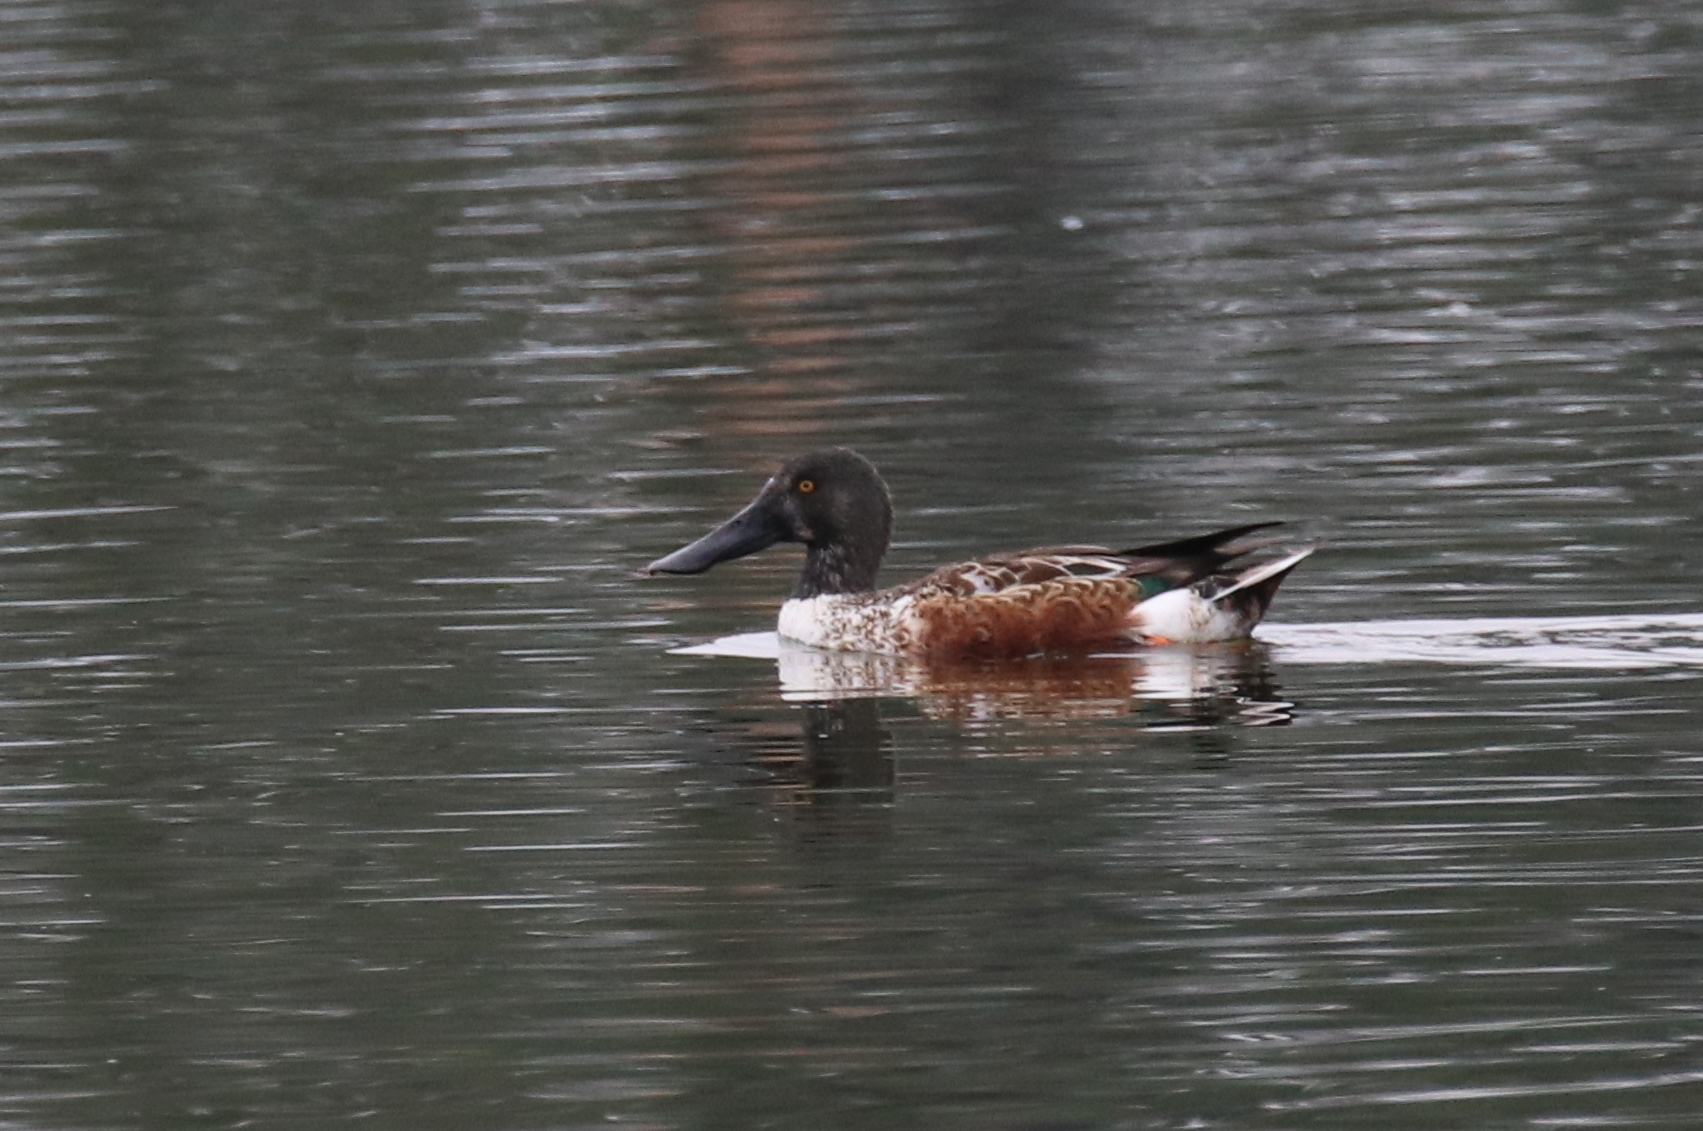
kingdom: Animalia
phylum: Chordata
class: Aves
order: Anseriformes
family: Anatidae
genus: Spatula
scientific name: Spatula clypeata
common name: Northern shoveler
